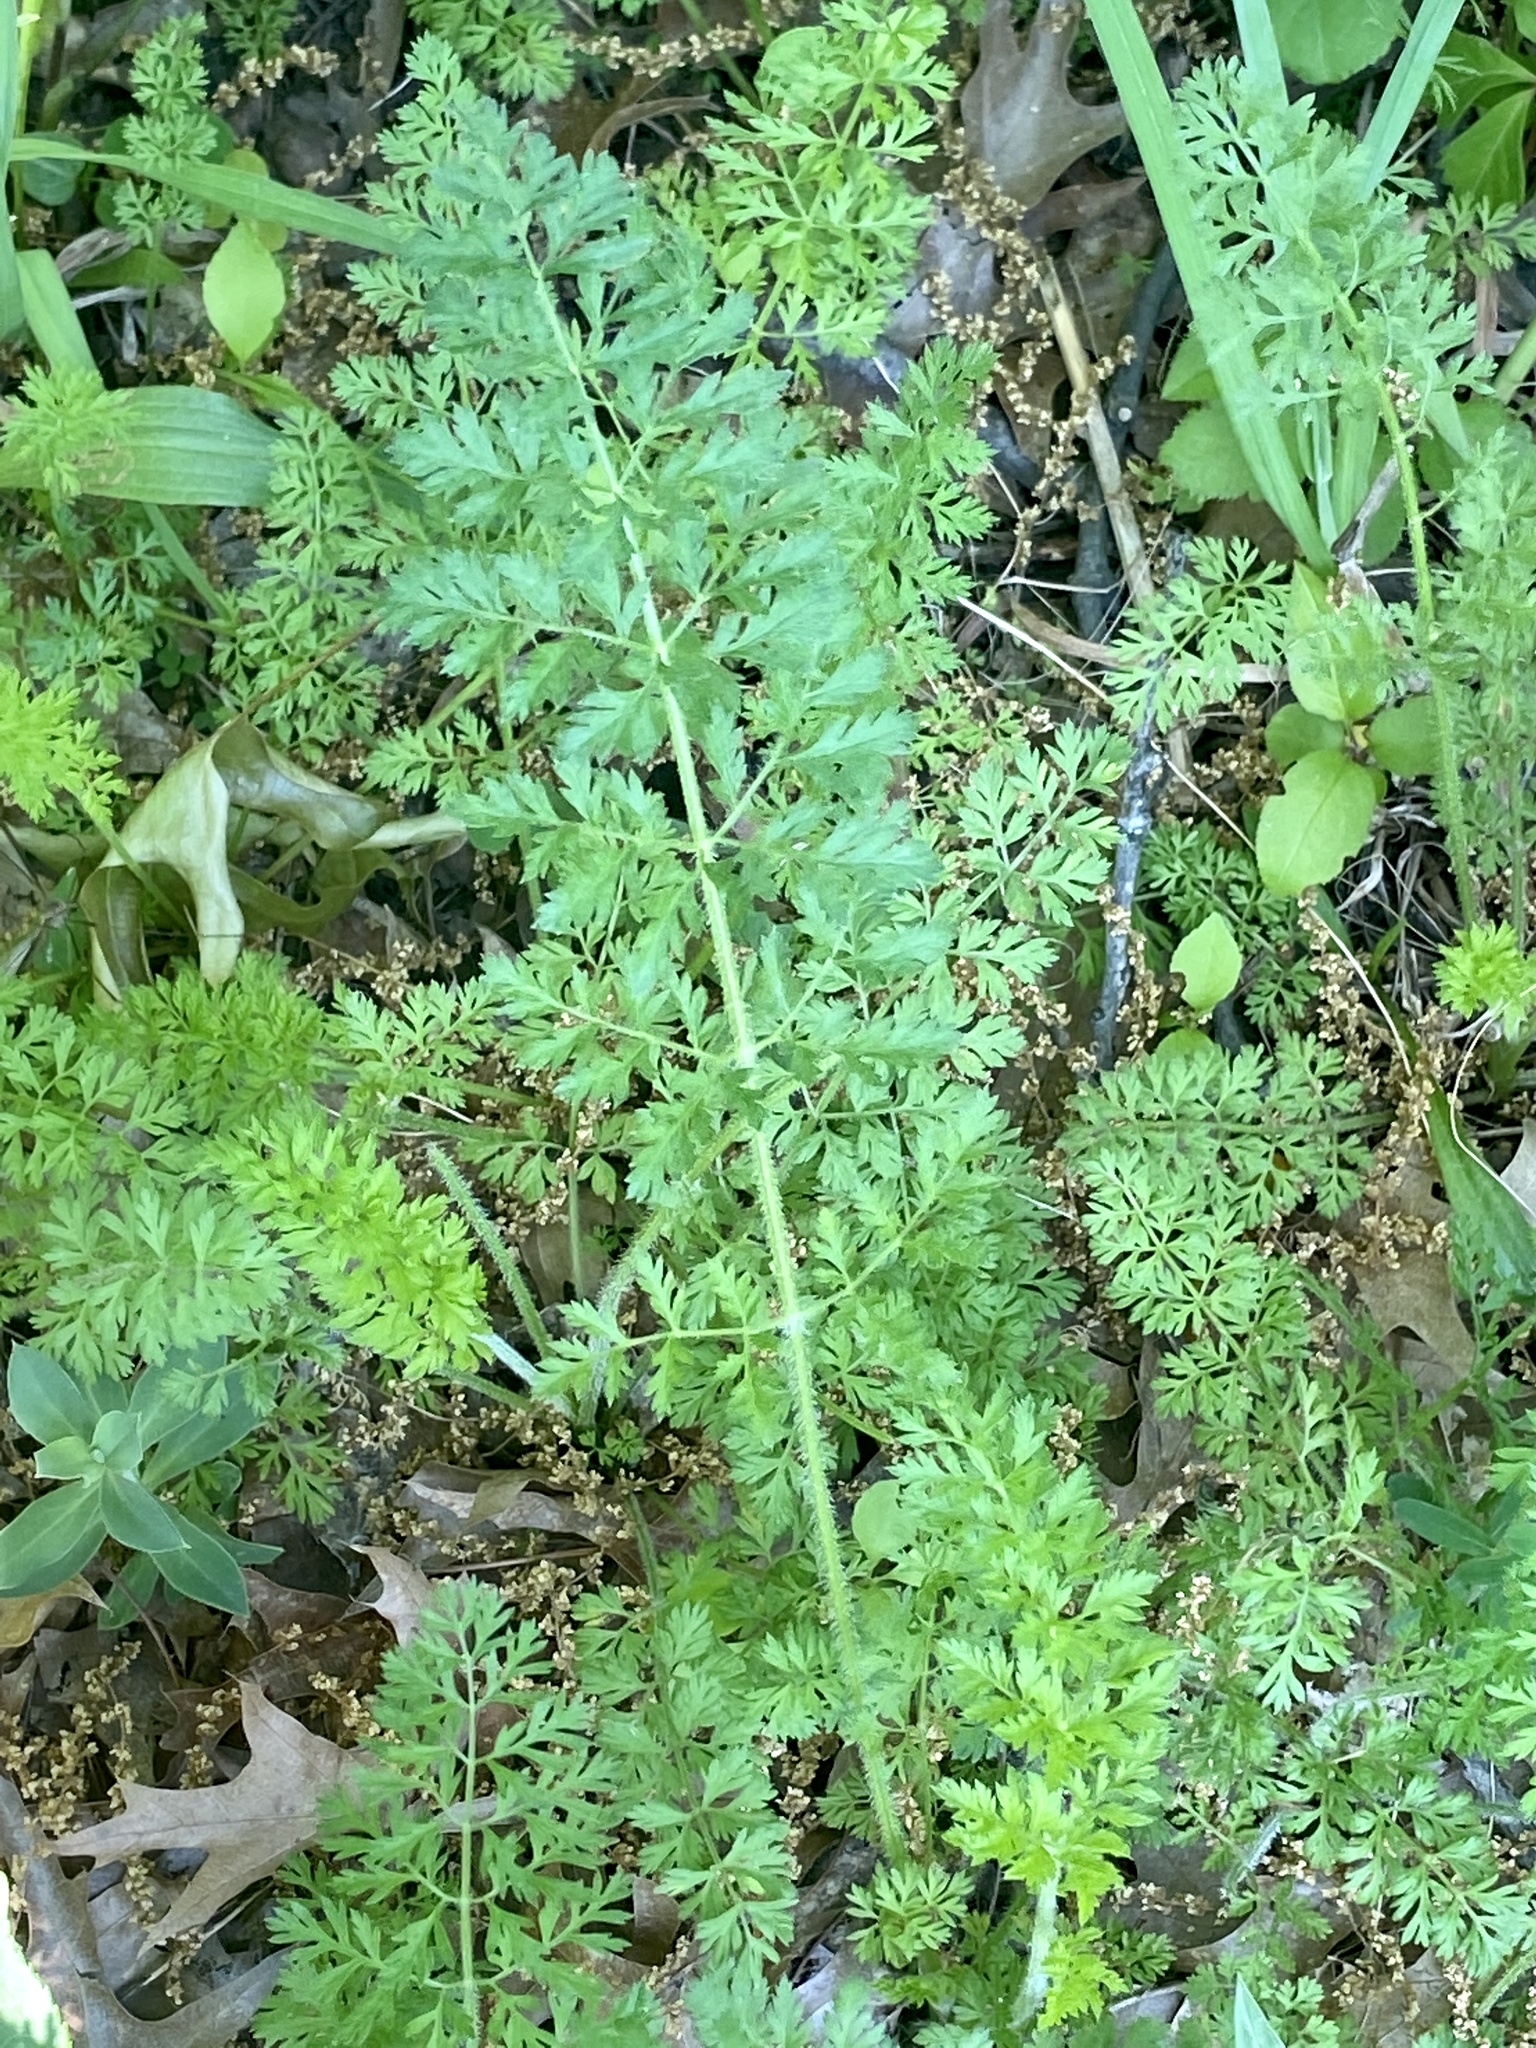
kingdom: Plantae
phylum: Tracheophyta
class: Magnoliopsida
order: Apiales
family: Apiaceae
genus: Daucus
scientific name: Daucus carota
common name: Wild carrot
